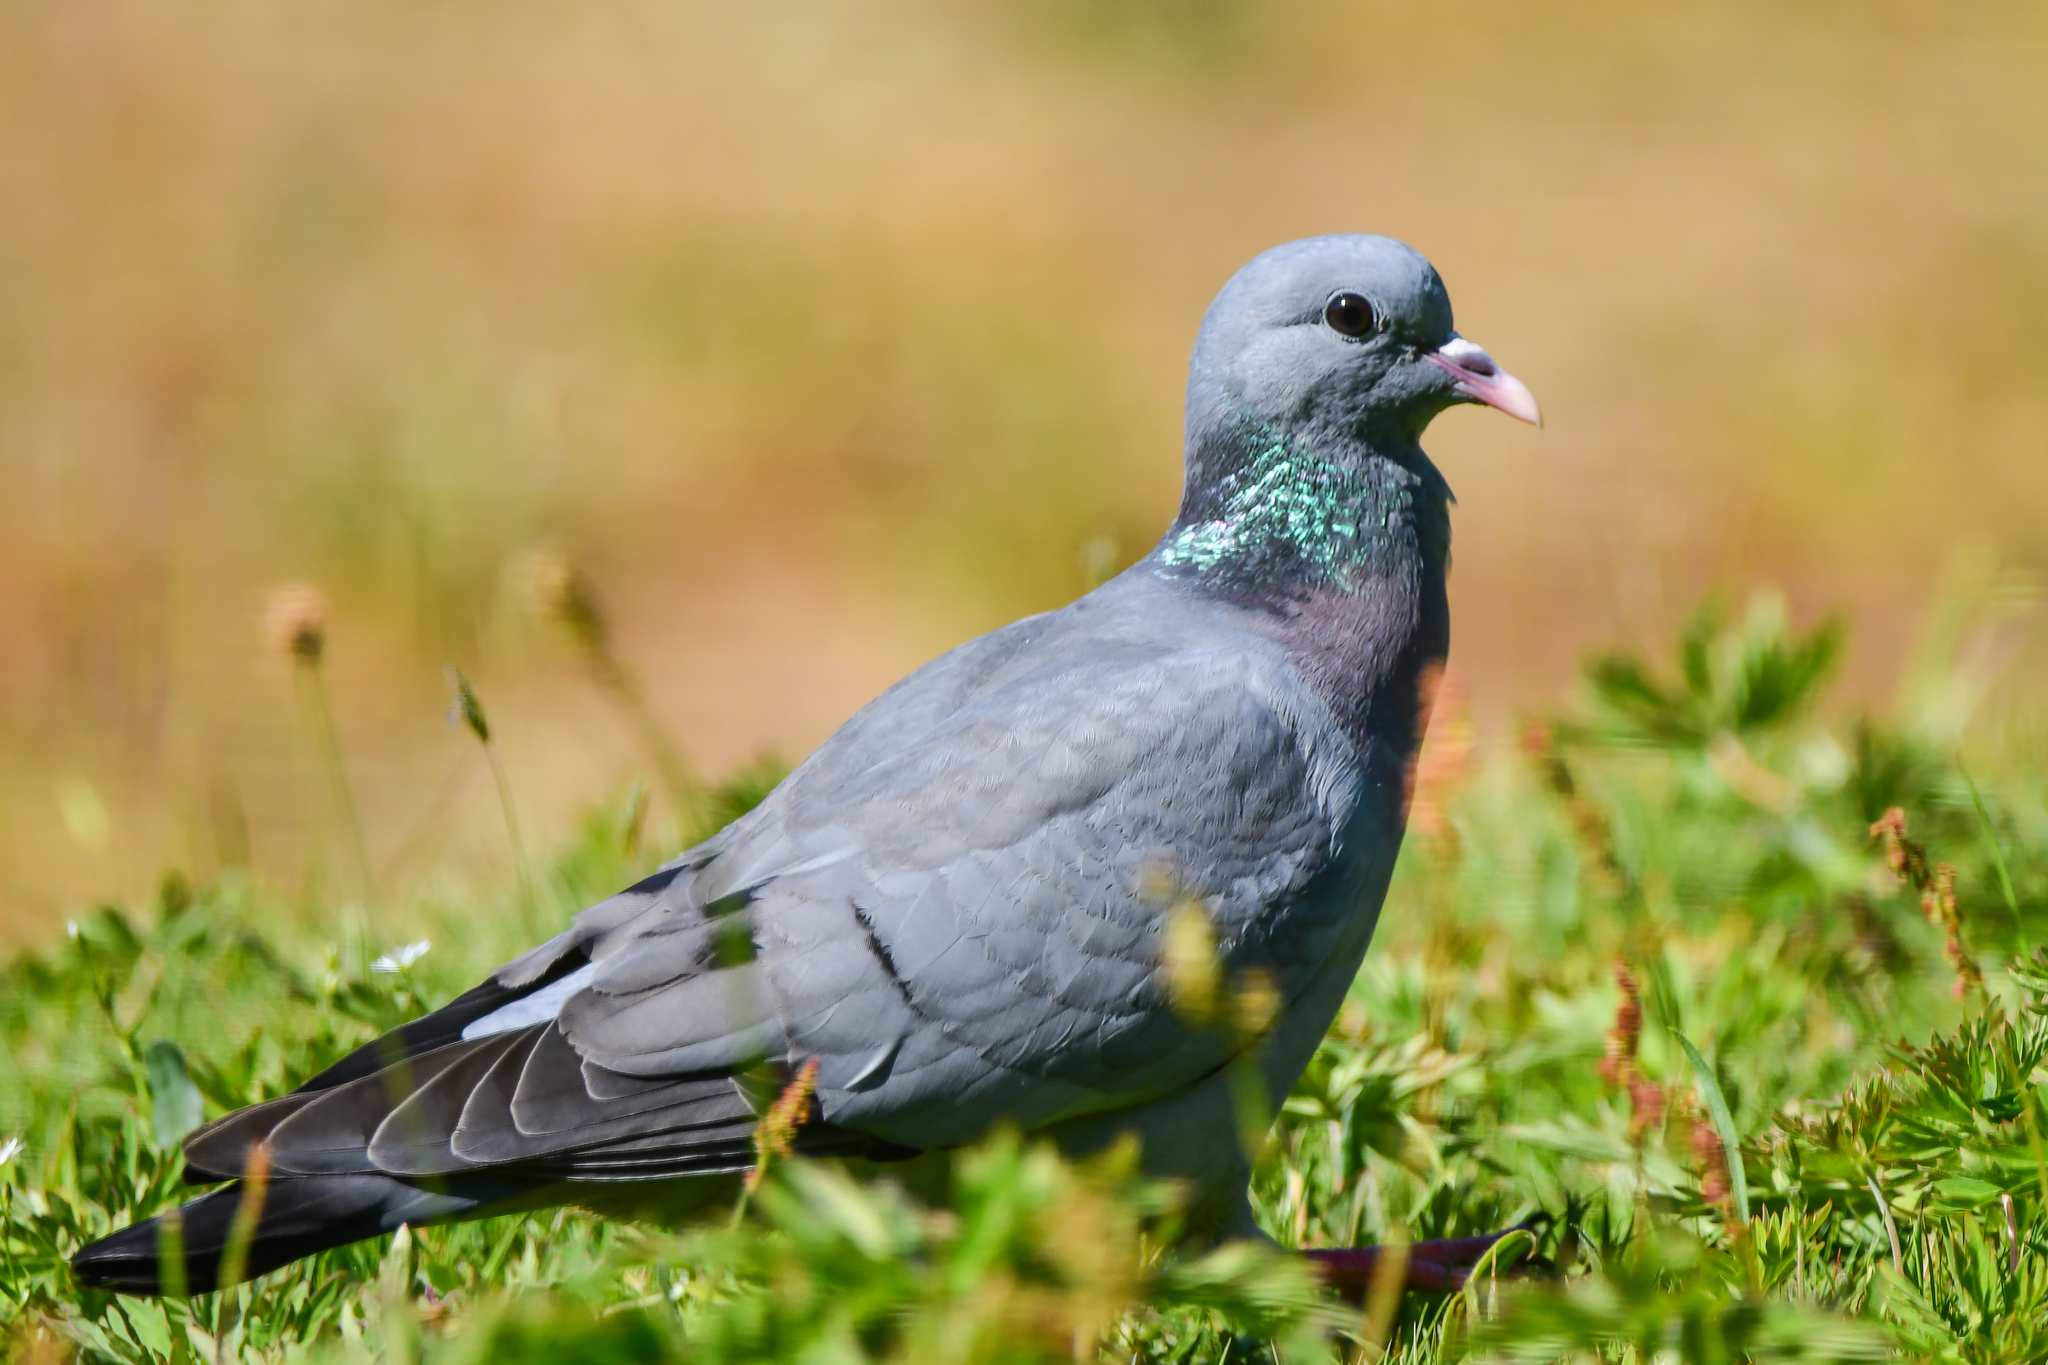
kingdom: Animalia
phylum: Chordata
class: Aves
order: Columbiformes
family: Columbidae
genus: Columba
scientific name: Columba oenas
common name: Stock dove
